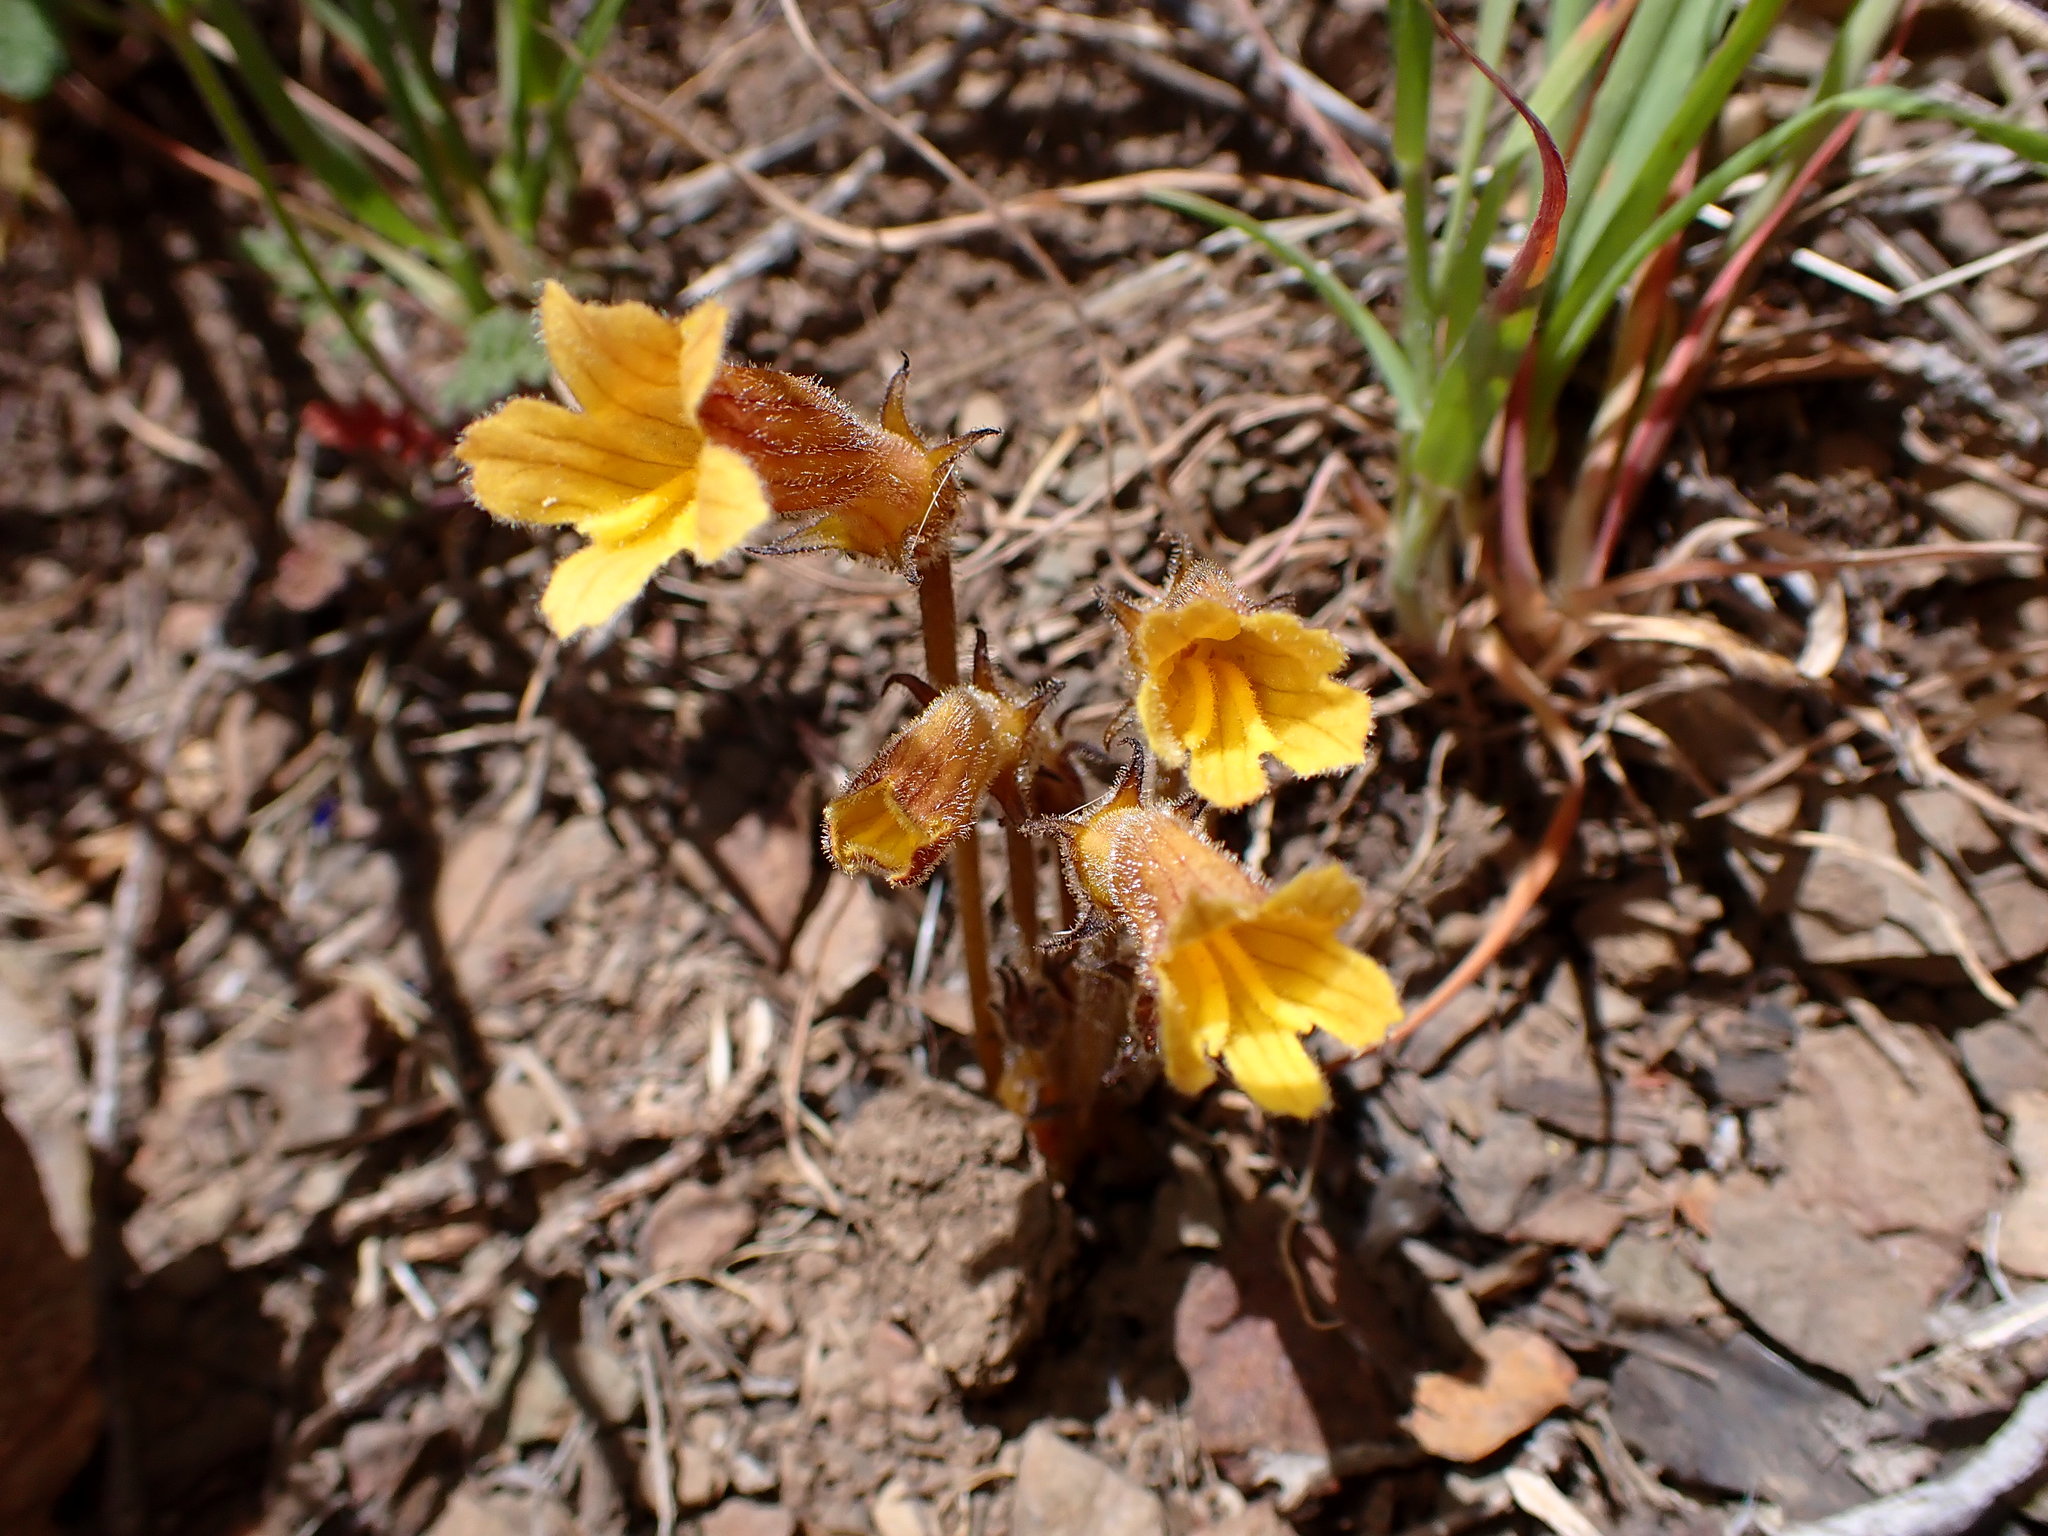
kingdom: Plantae
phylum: Tracheophyta
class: Magnoliopsida
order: Lamiales
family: Orobanchaceae
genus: Aphyllon
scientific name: Aphyllon franciscanum
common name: San francisco broomrape
